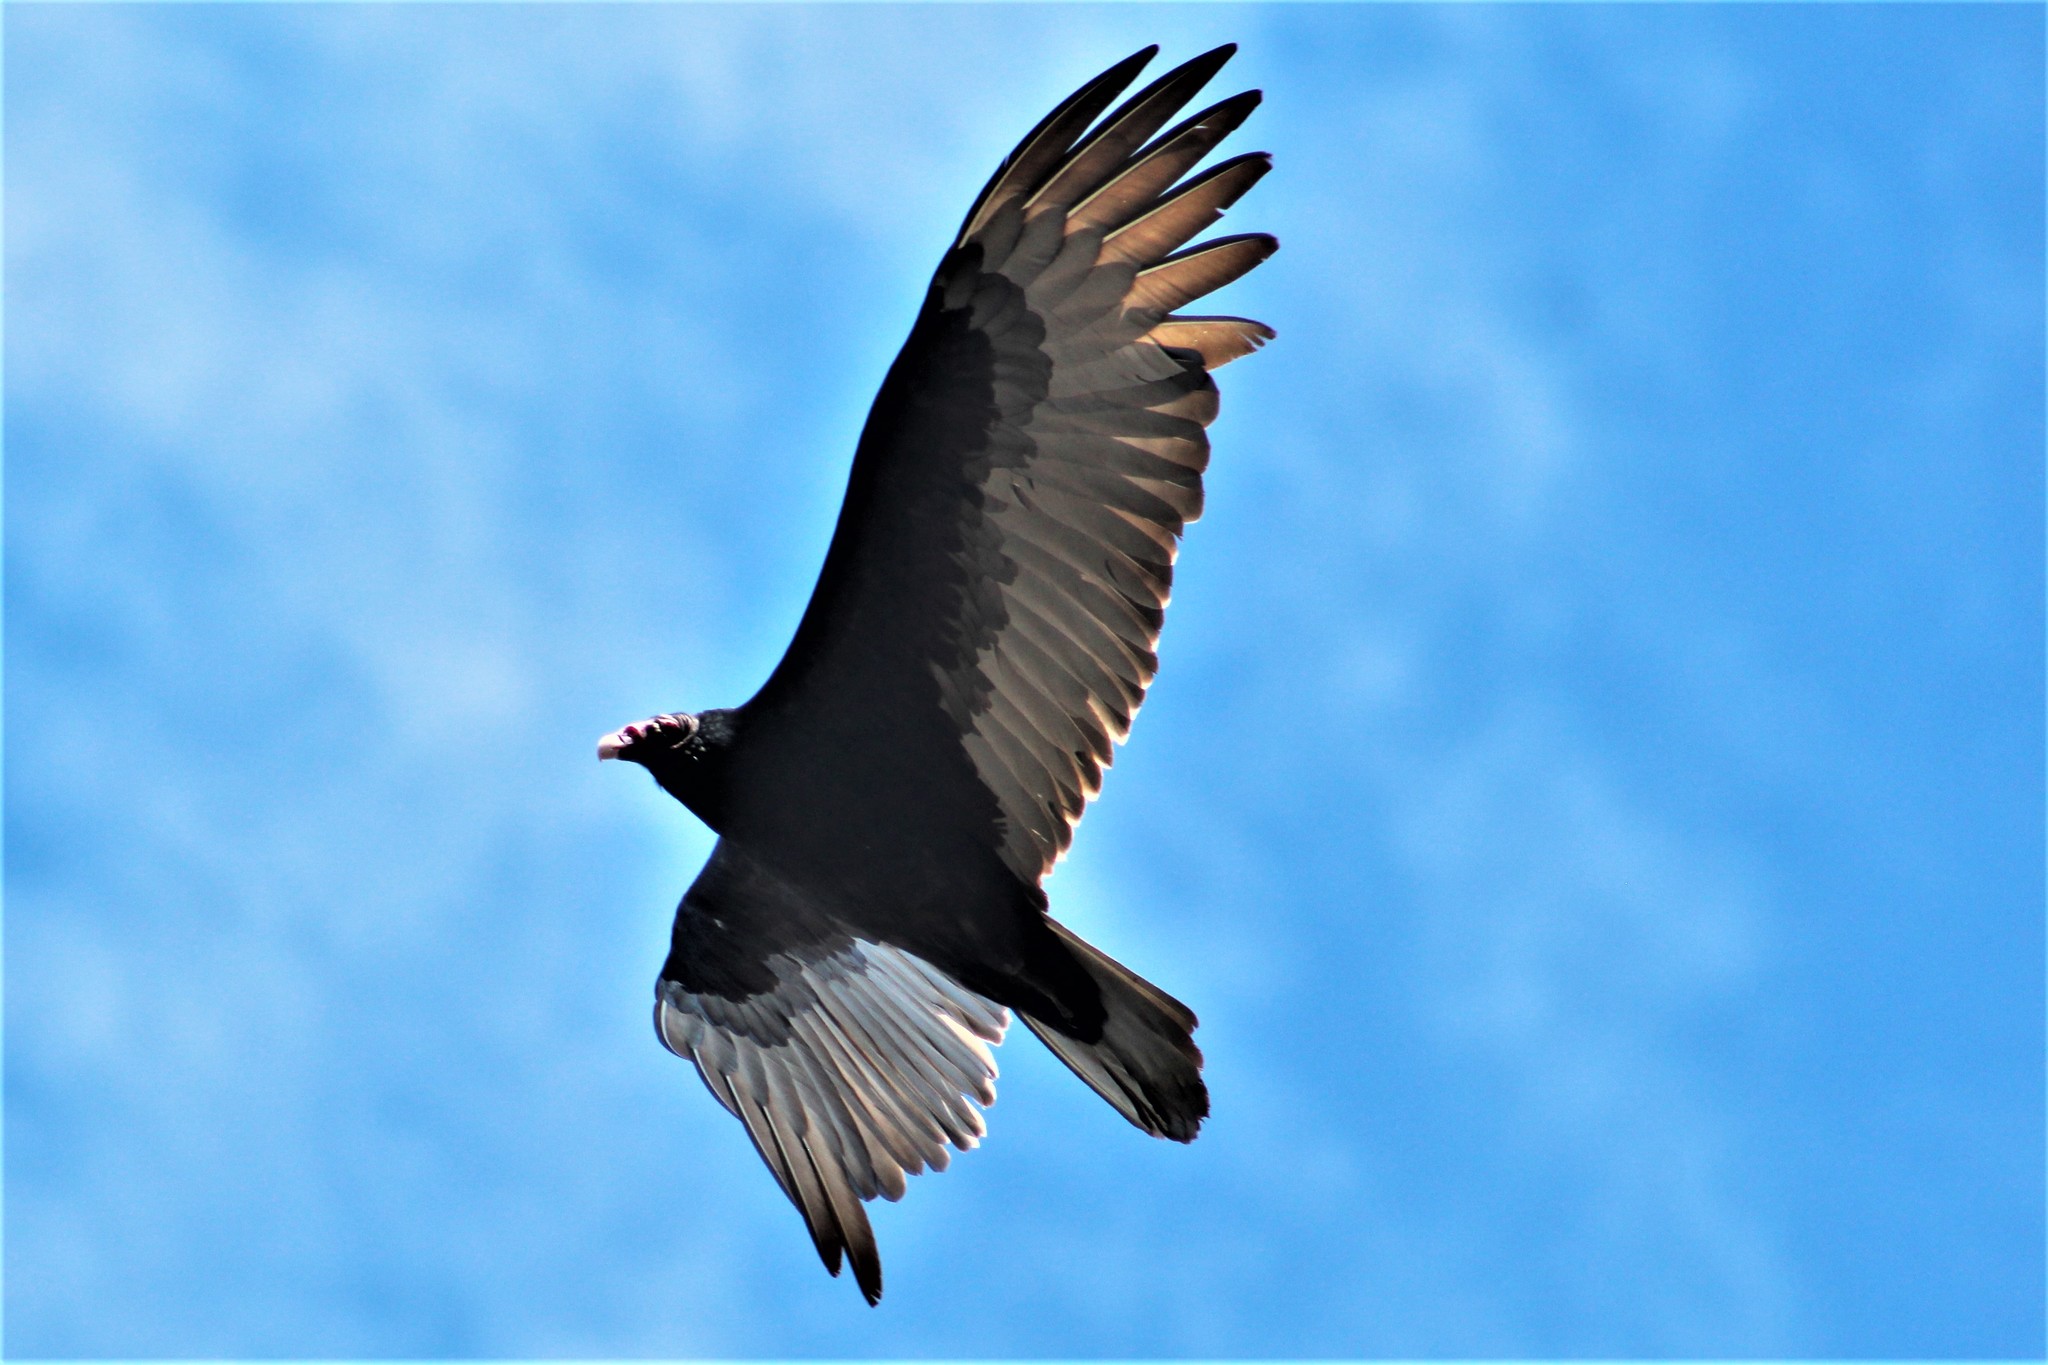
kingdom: Animalia
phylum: Chordata
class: Aves
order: Accipitriformes
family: Cathartidae
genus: Cathartes
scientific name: Cathartes aura
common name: Turkey vulture
